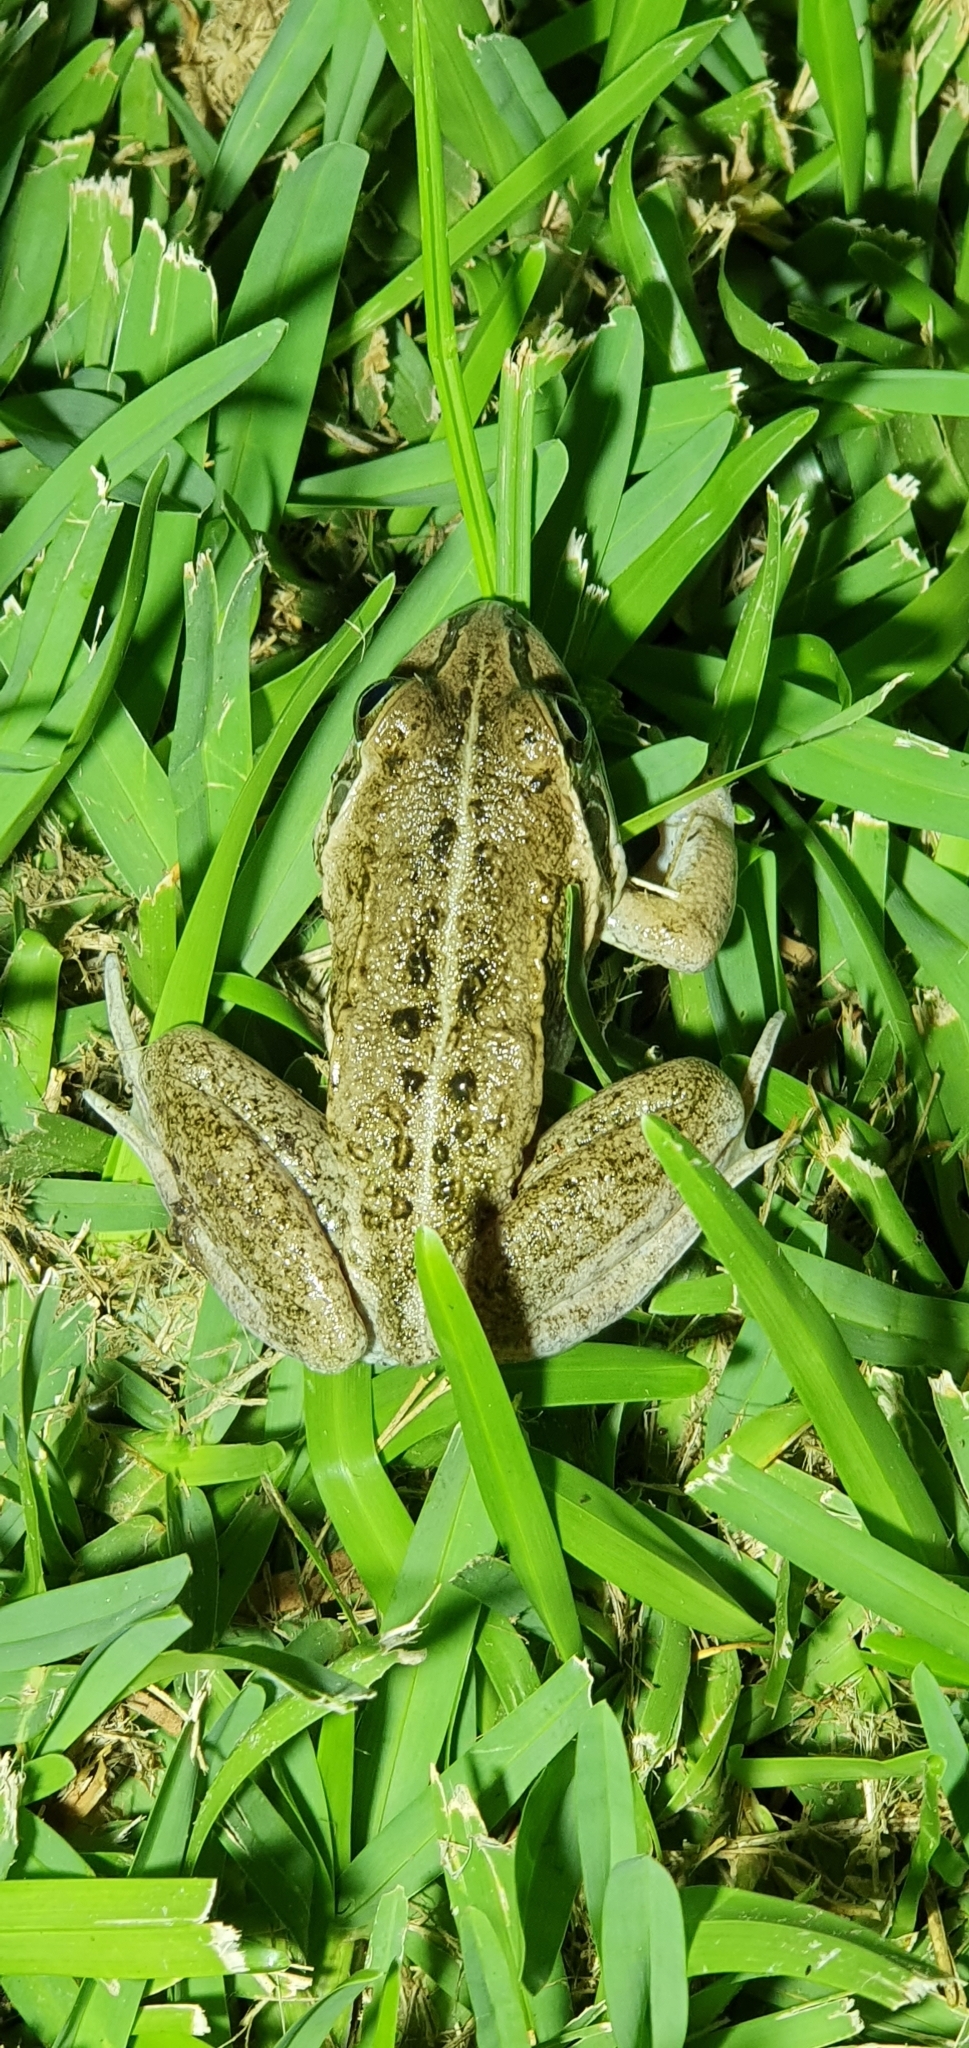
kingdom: Animalia
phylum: Chordata
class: Amphibia
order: Anura
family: Pelodryadidae
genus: Ranoidea
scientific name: Ranoidea alboguttata
